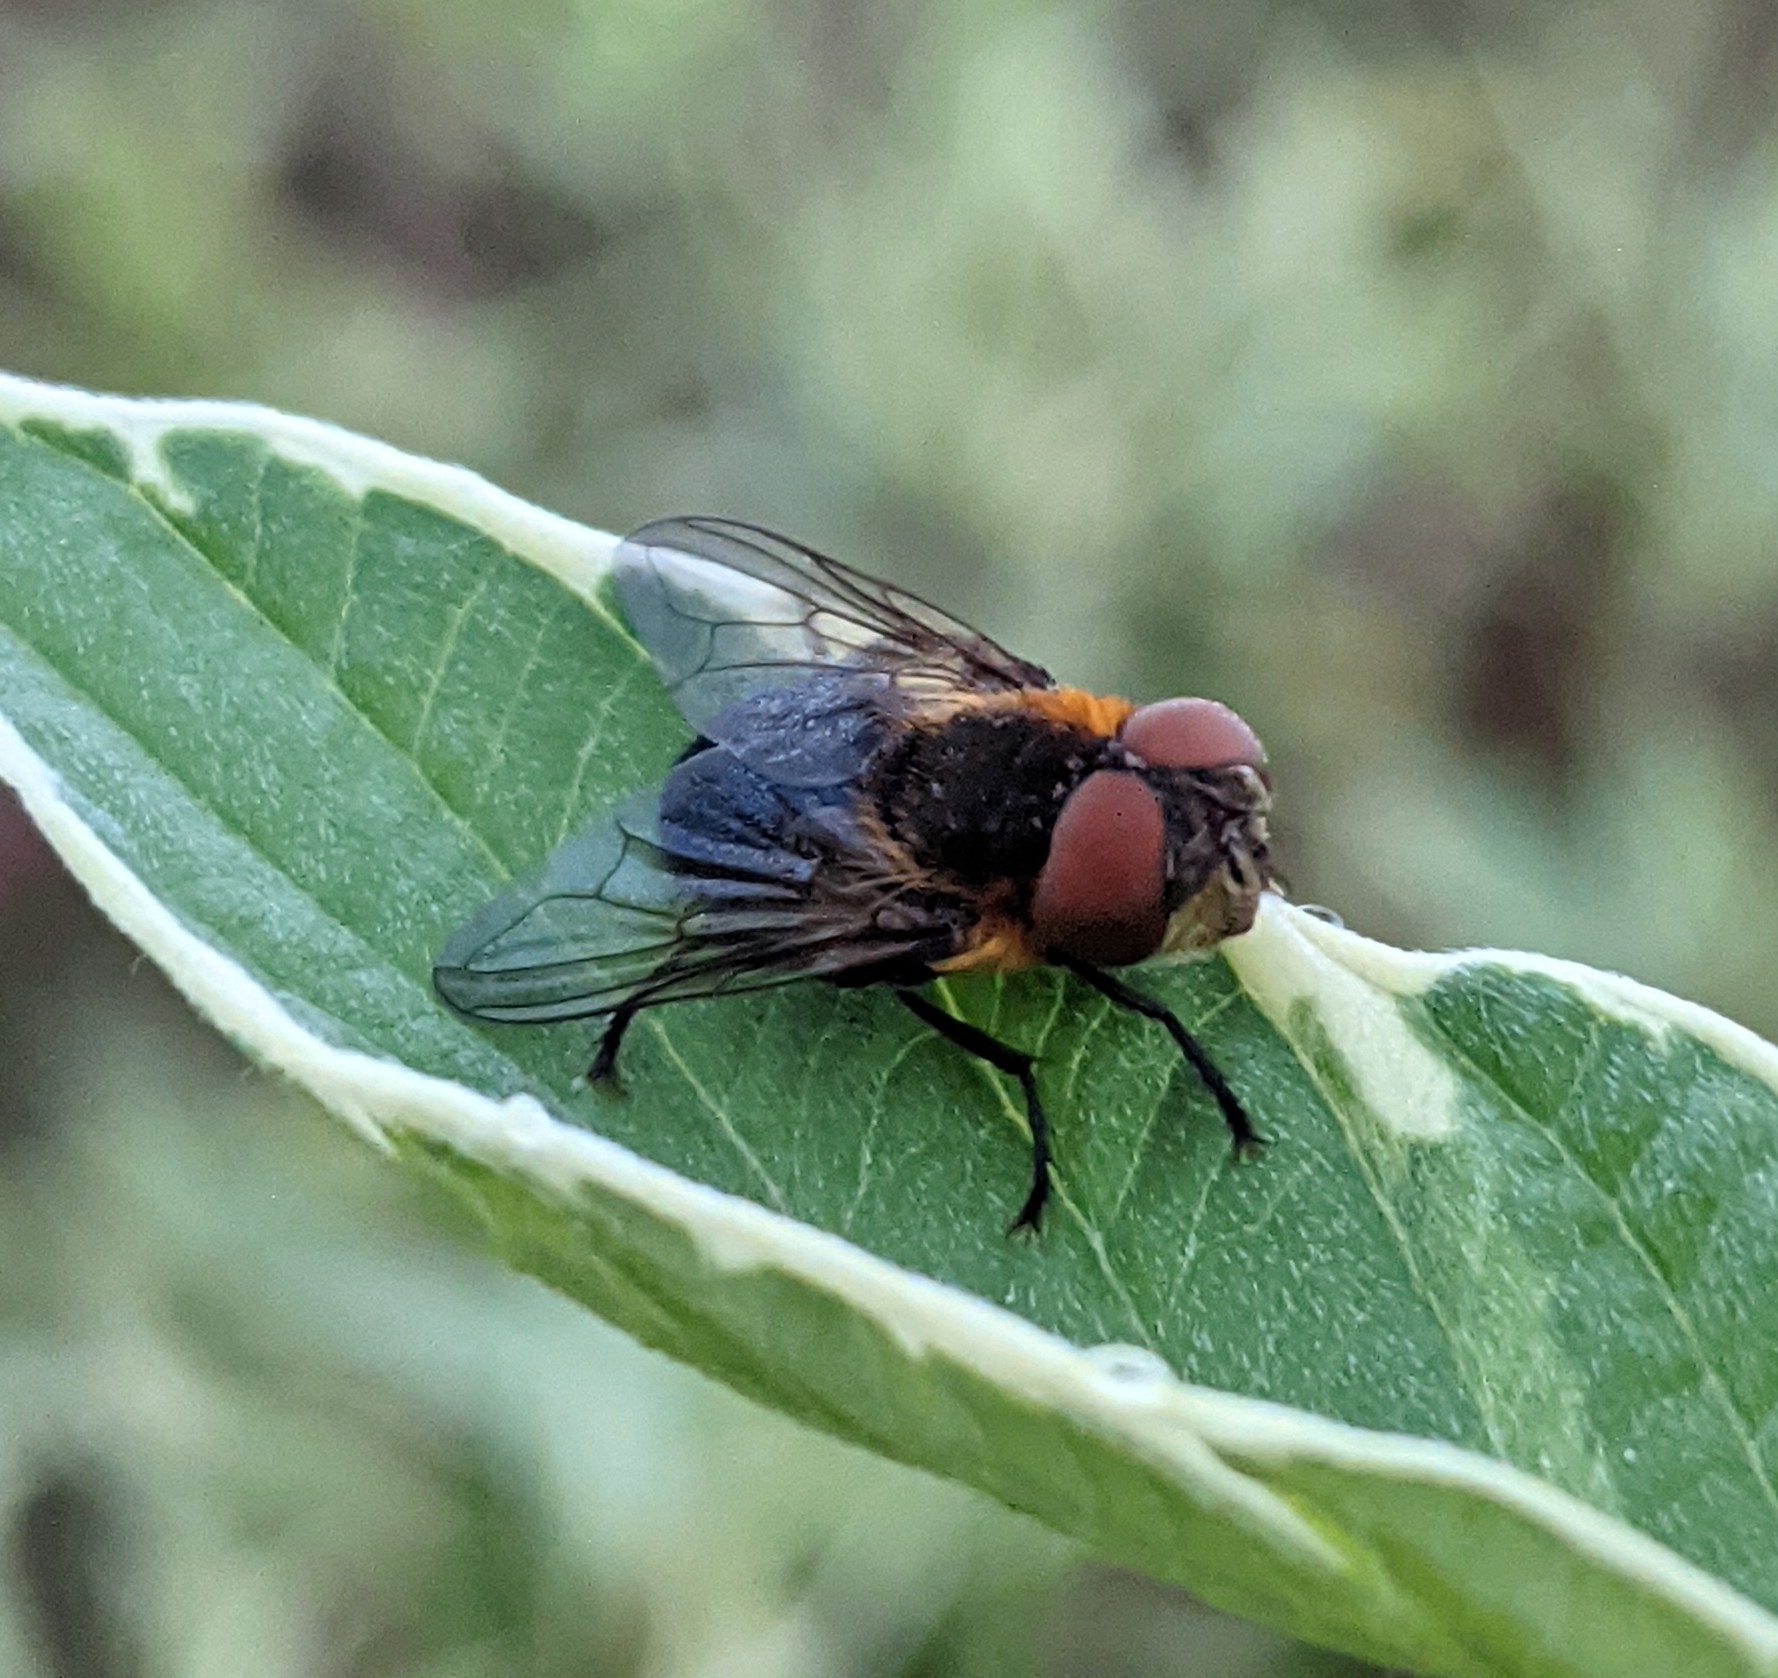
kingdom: Animalia
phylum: Arthropoda
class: Insecta
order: Diptera
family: Tachinidae
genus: Phasia
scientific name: Phasia hemiptera
